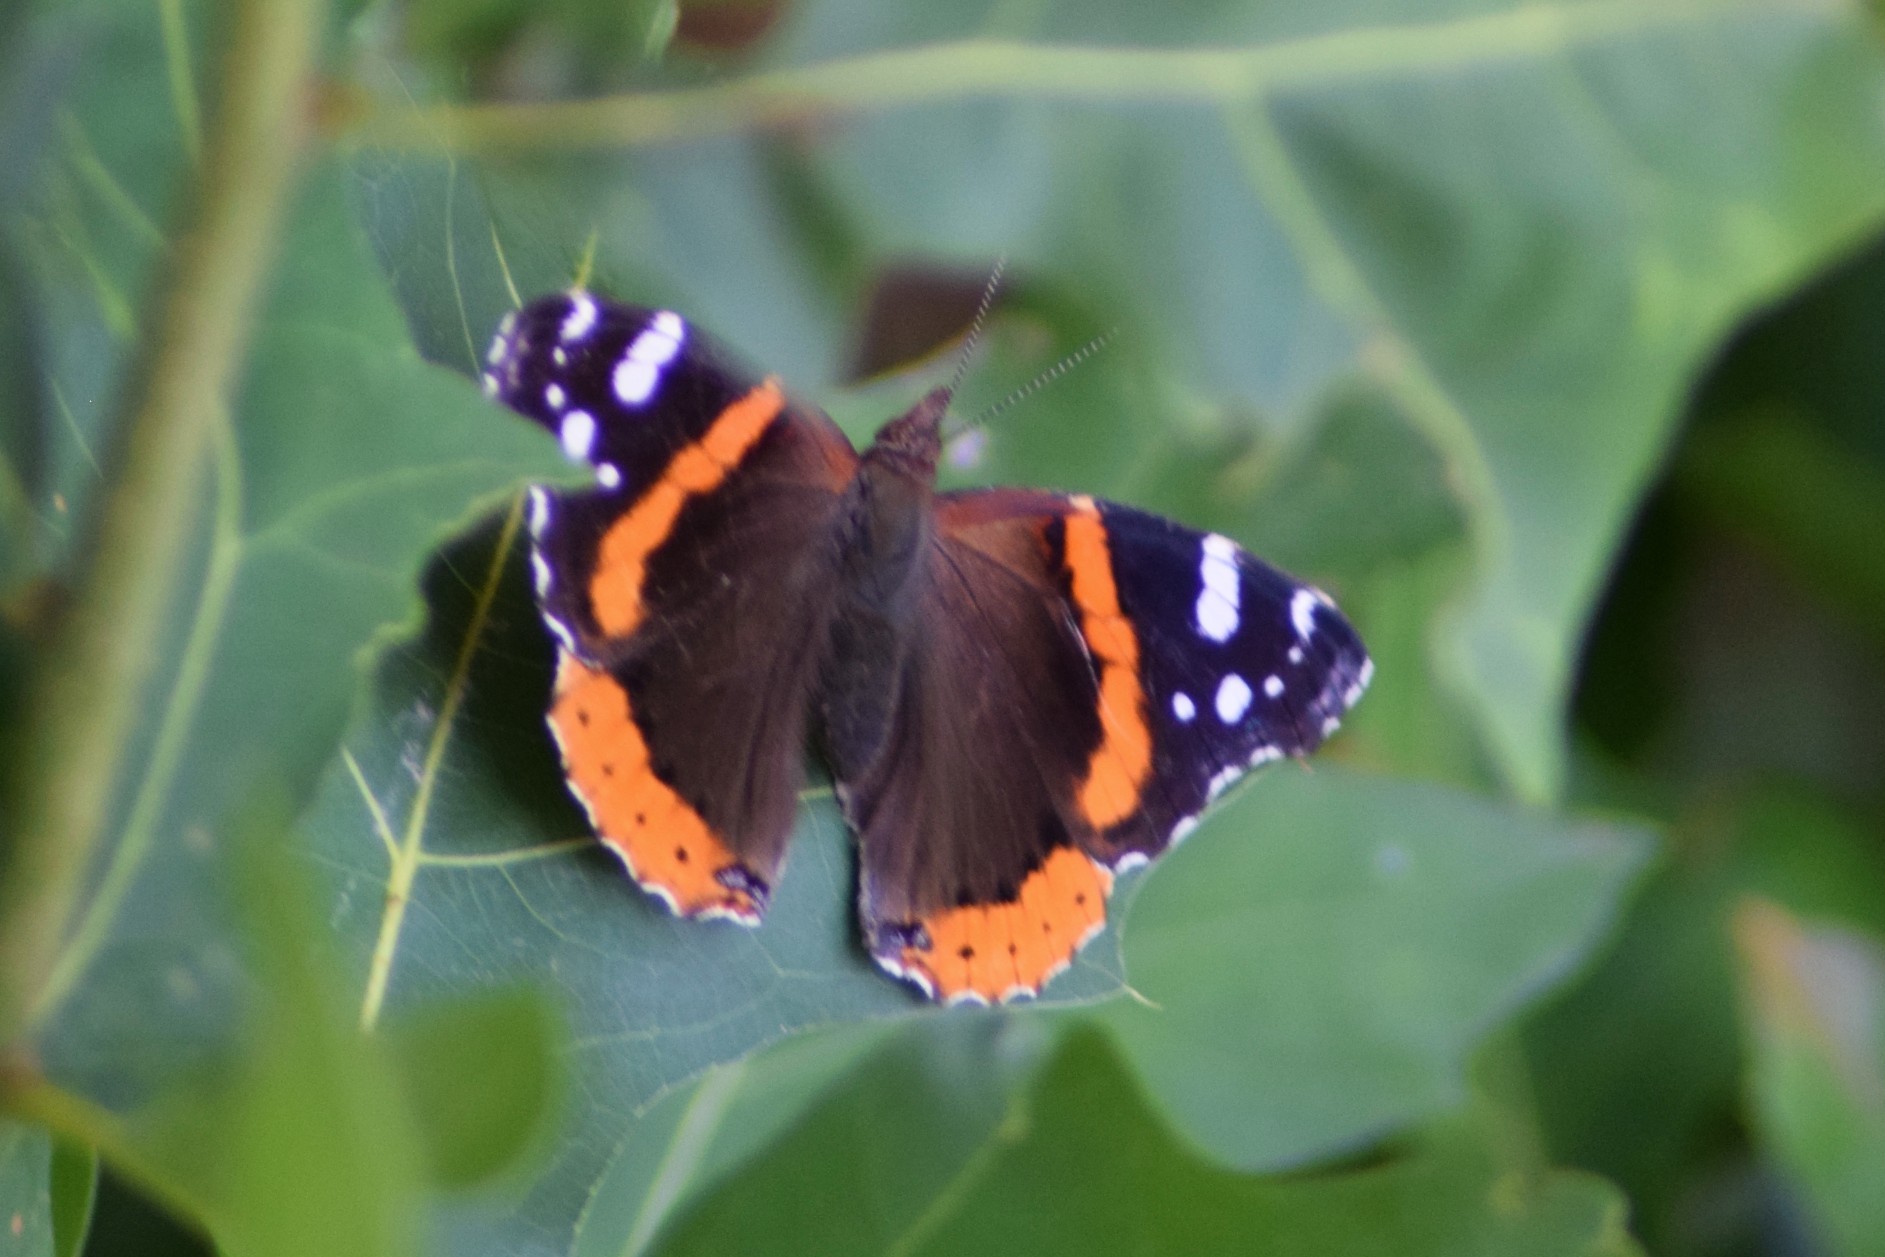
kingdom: Animalia
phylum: Arthropoda
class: Insecta
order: Lepidoptera
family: Nymphalidae
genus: Vanessa
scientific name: Vanessa atalanta
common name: Red admiral
